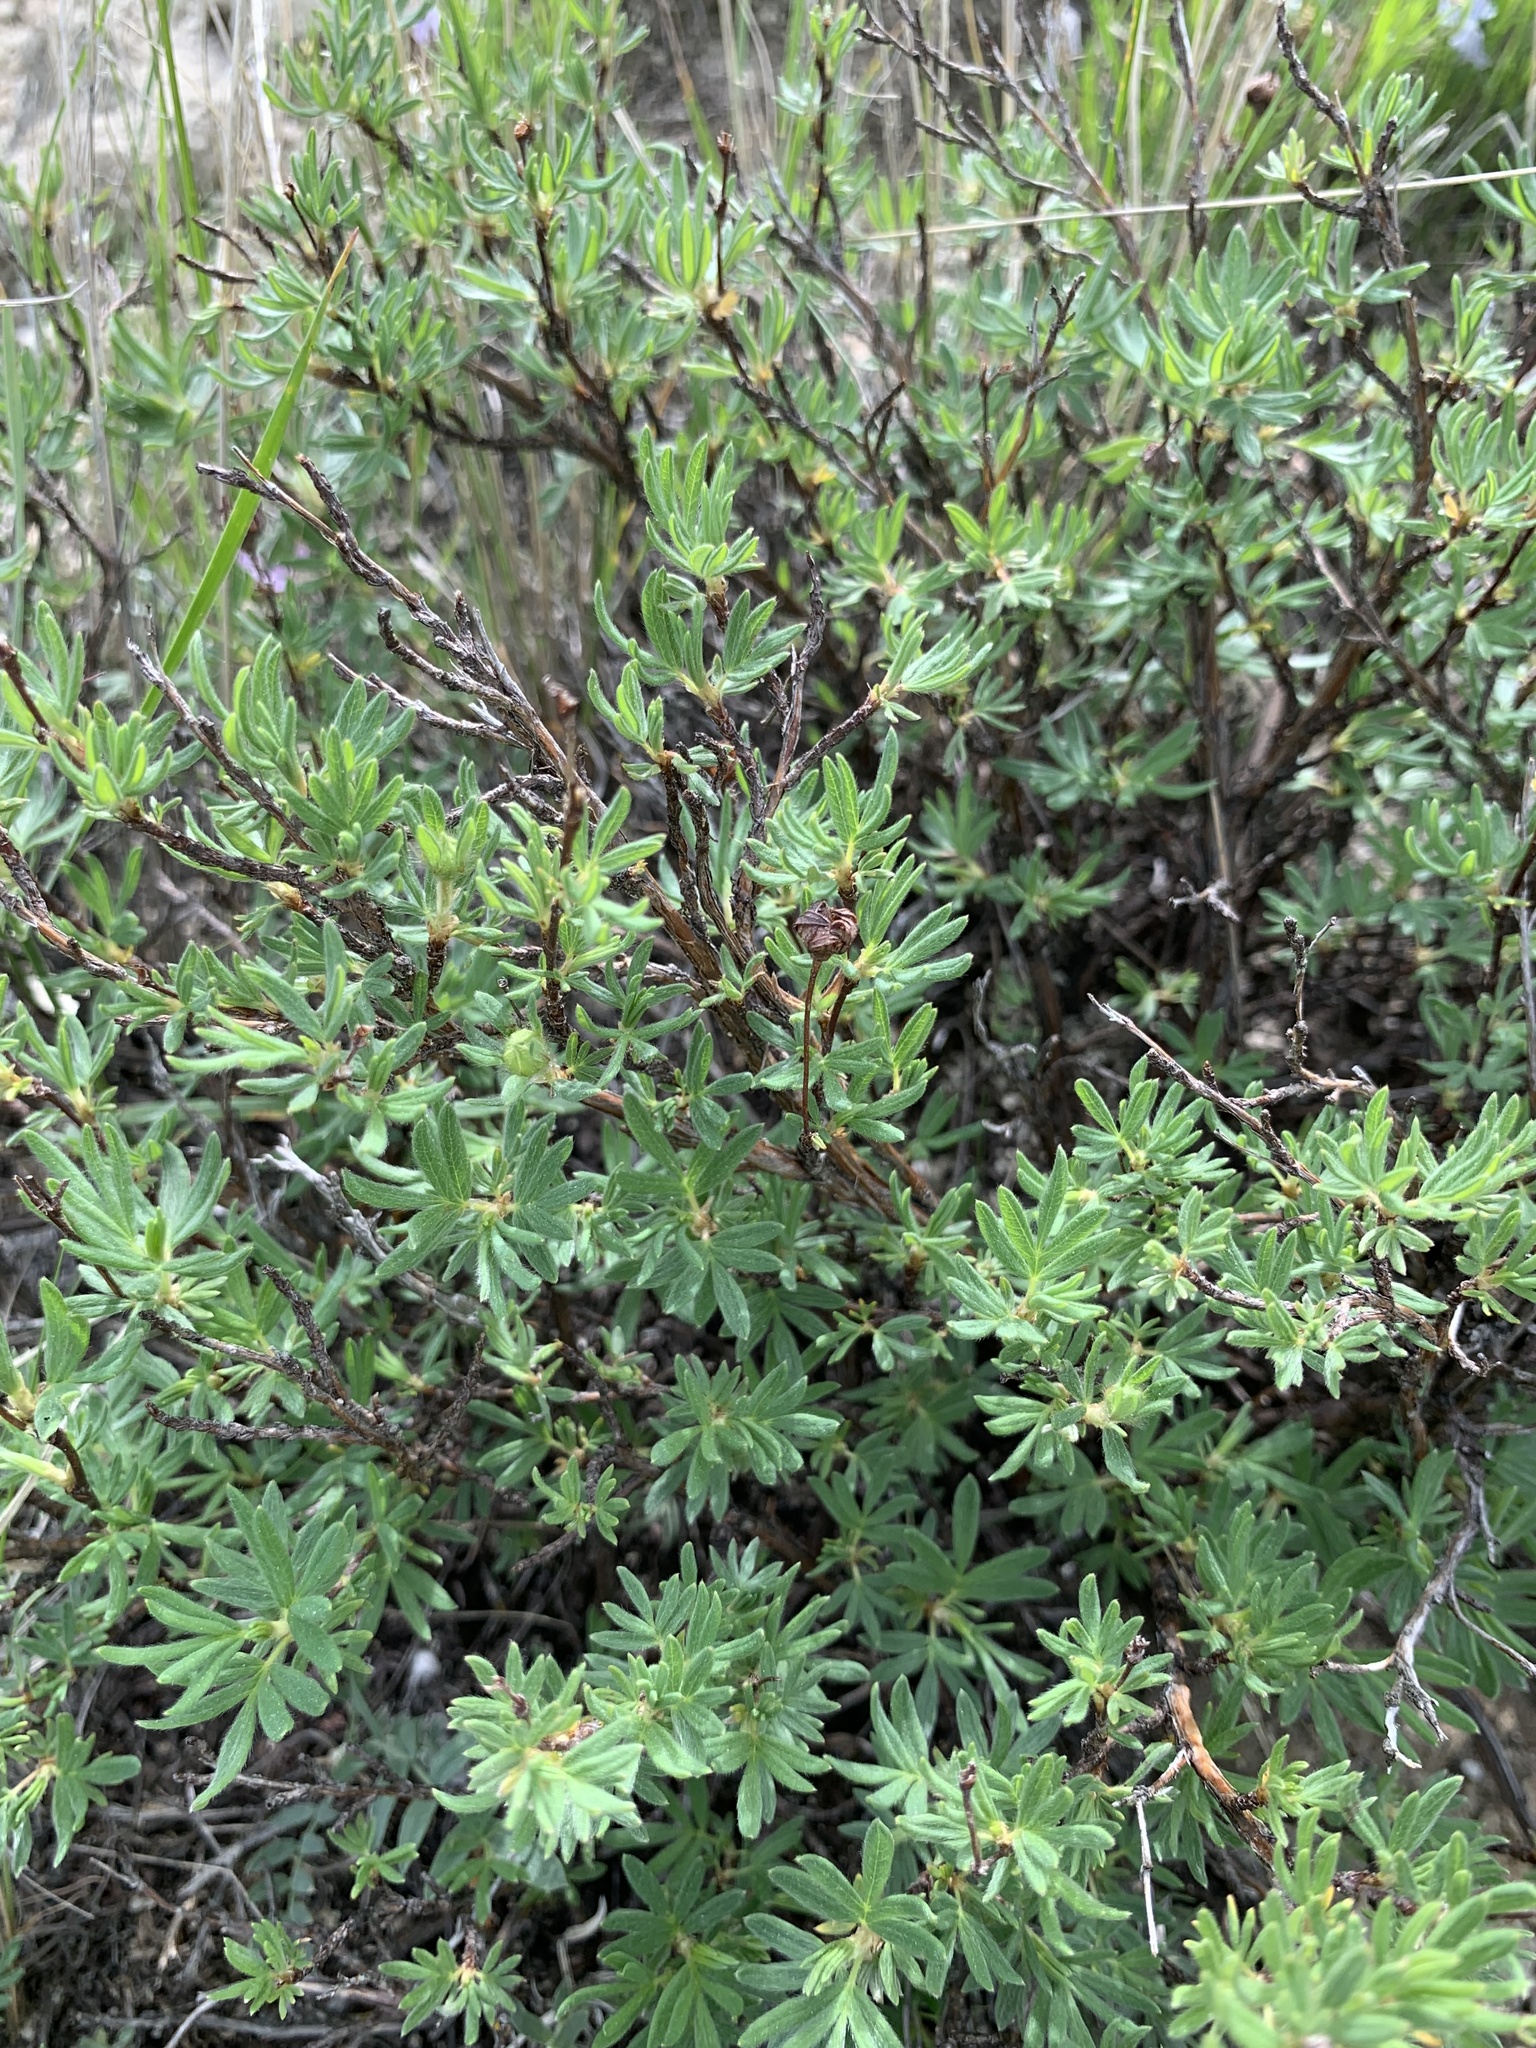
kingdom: Plantae
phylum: Tracheophyta
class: Magnoliopsida
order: Rosales
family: Rosaceae
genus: Dasiphora
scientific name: Dasiphora fruticosa
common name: Shrubby cinquefoil
